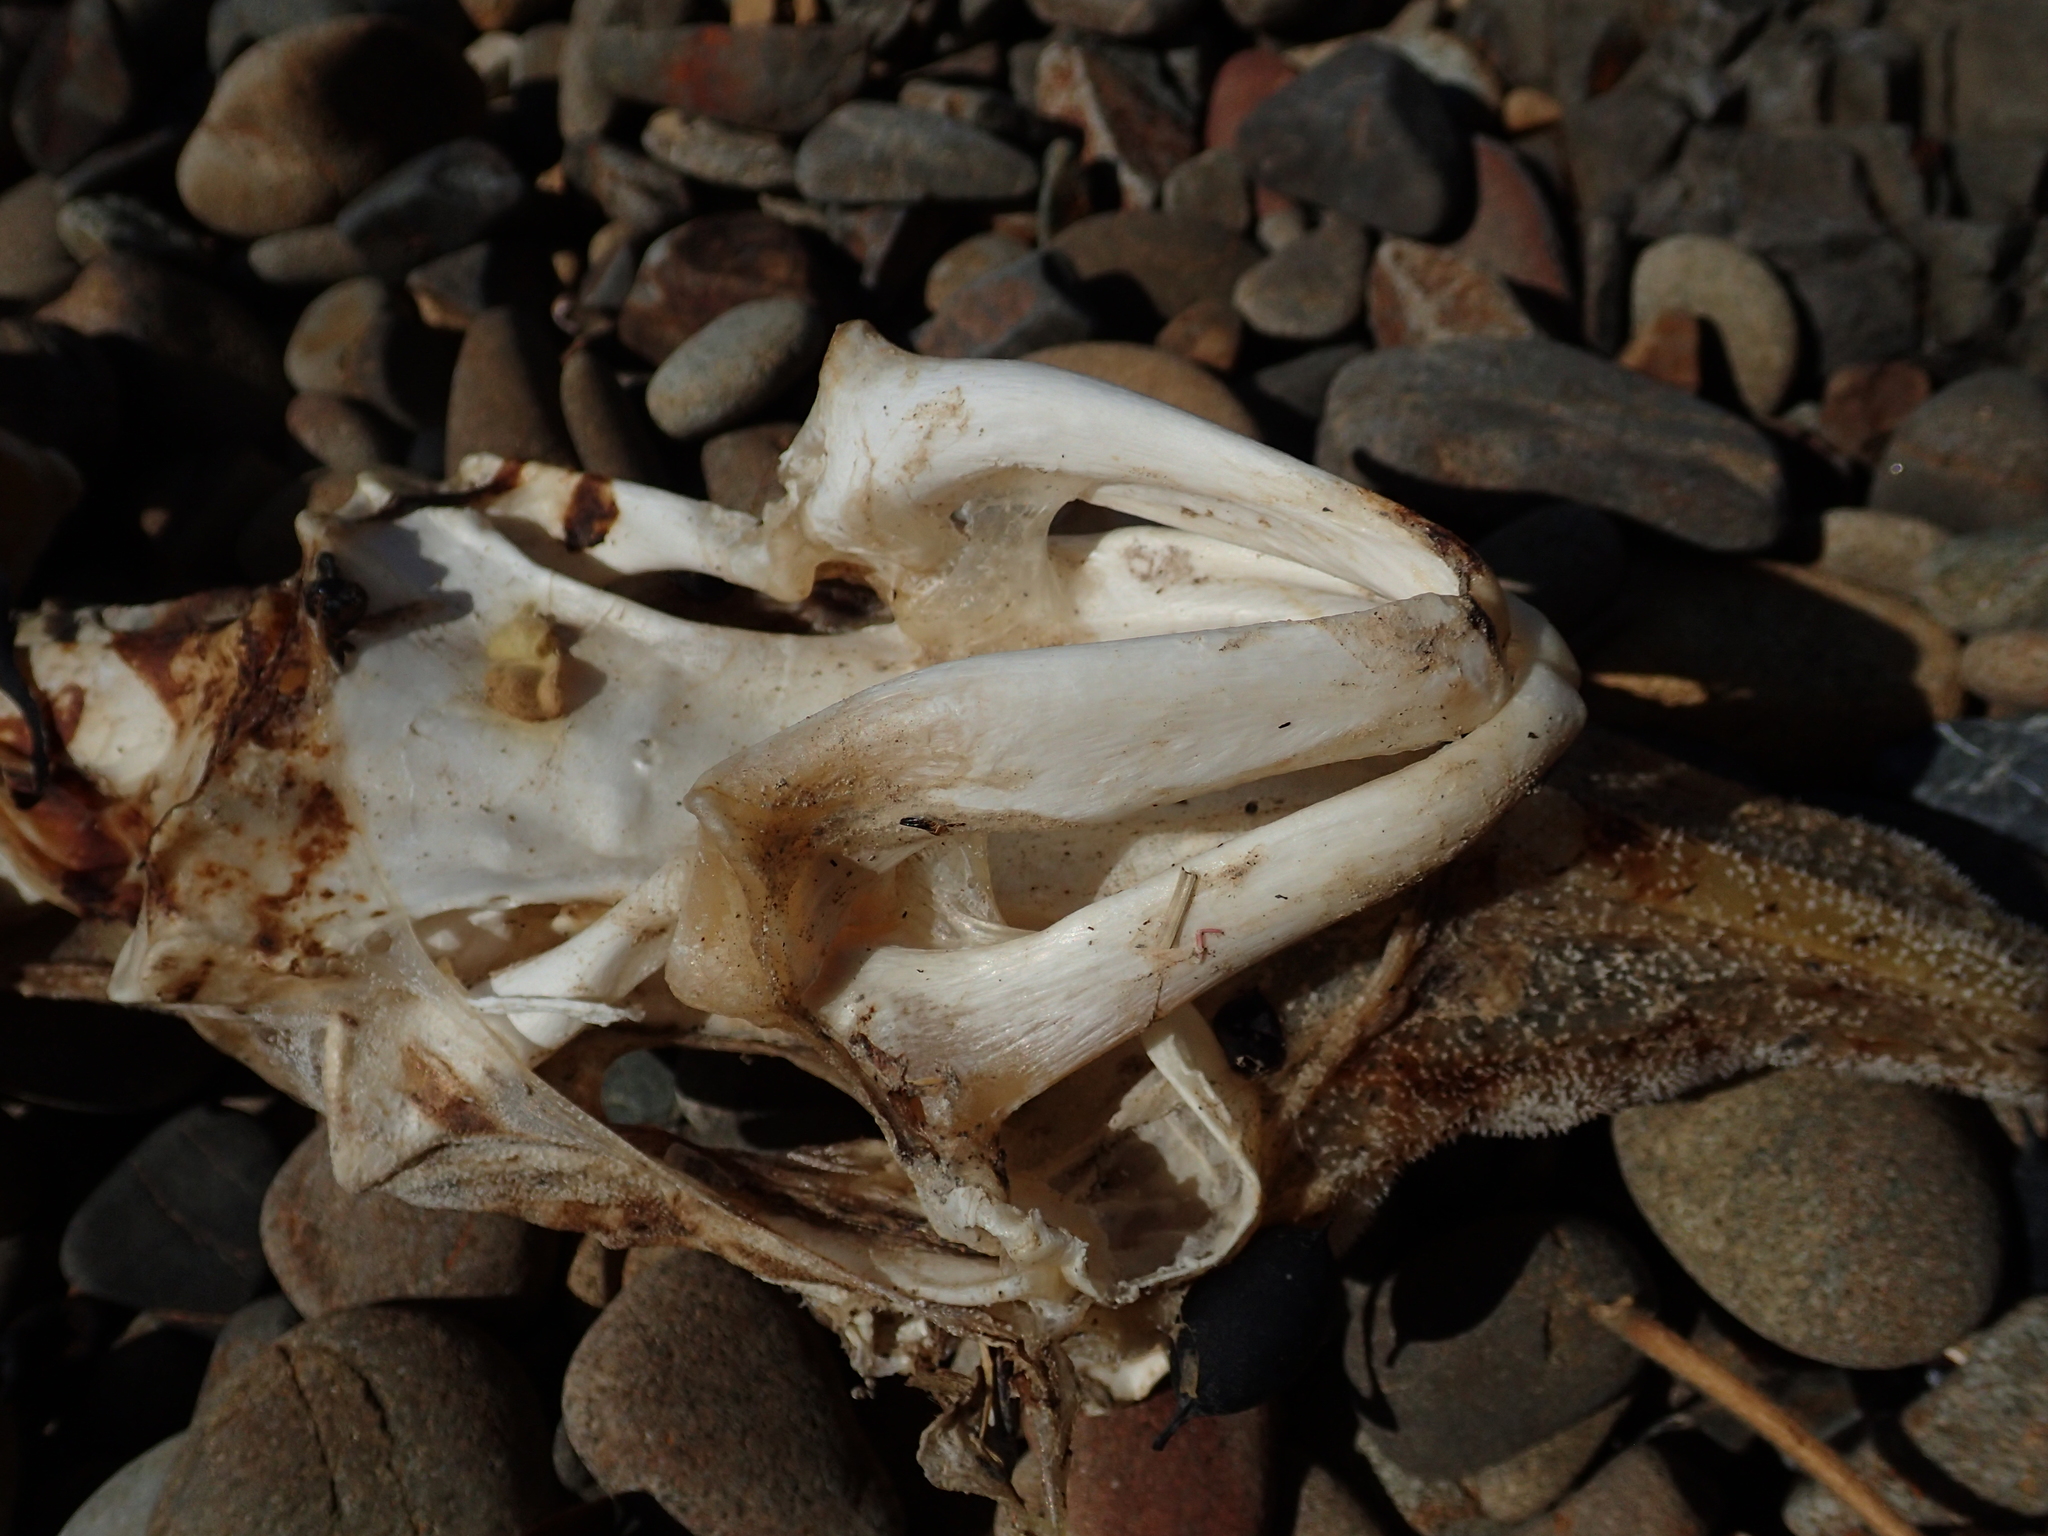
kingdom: Animalia
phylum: Chordata
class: Elasmobranchii
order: Rajiformes
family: Rajidae
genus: Zearaja
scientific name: Zearaja nasuta
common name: New zealand rough skate
